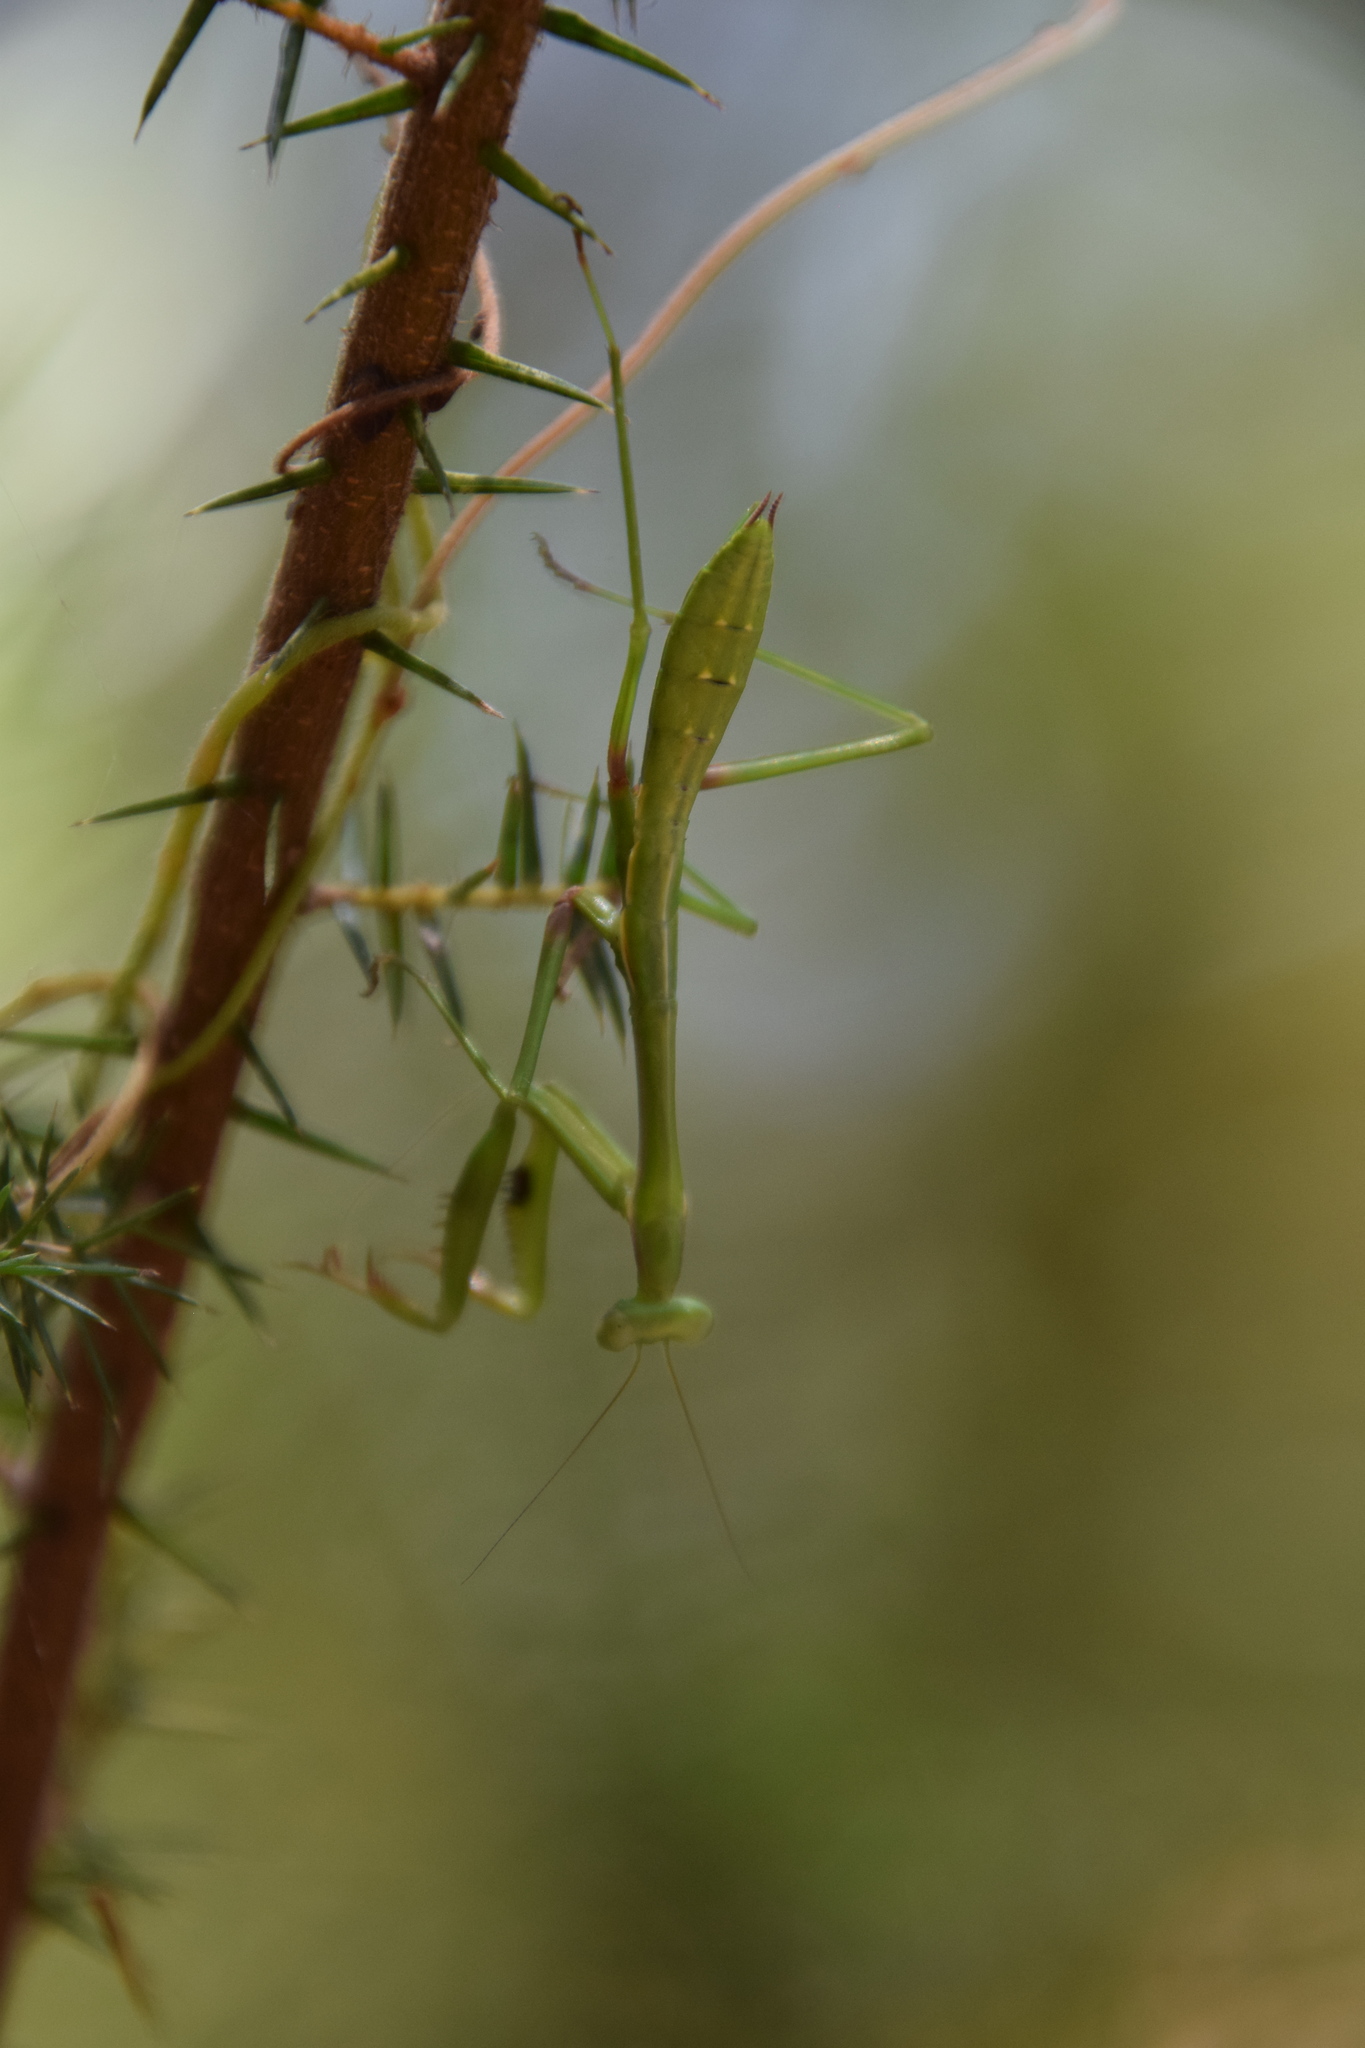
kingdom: Animalia
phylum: Arthropoda
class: Insecta
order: Mantodea
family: Mantidae
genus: Pseudomantis
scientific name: Pseudomantis albofimbriata
